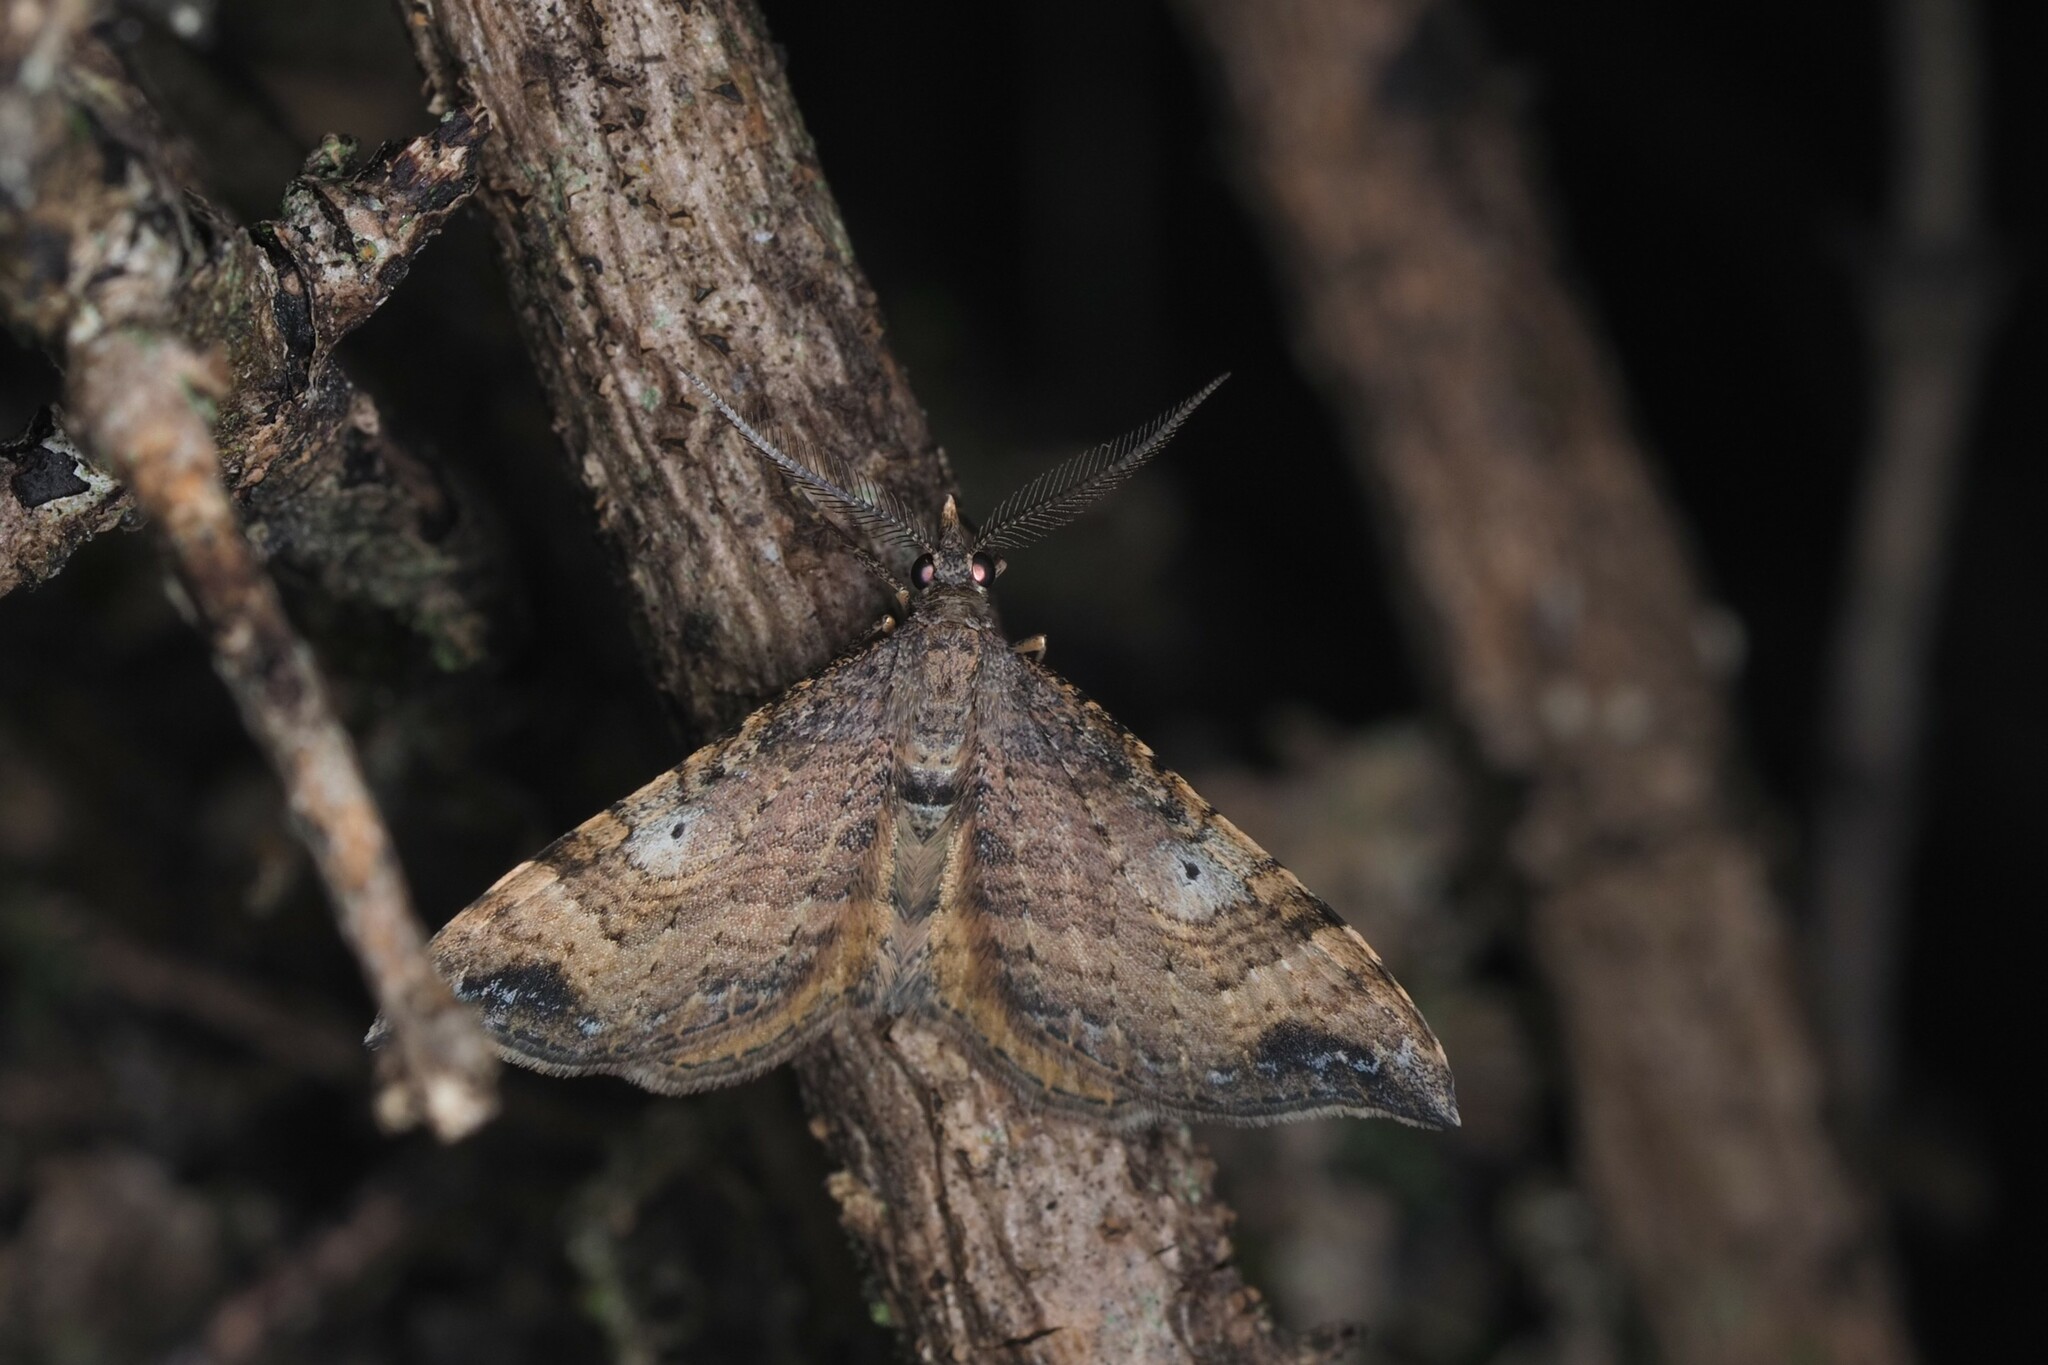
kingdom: Animalia
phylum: Arthropoda
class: Insecta
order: Lepidoptera
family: Geometridae
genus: Homodotis
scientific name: Homodotis megaspilata
